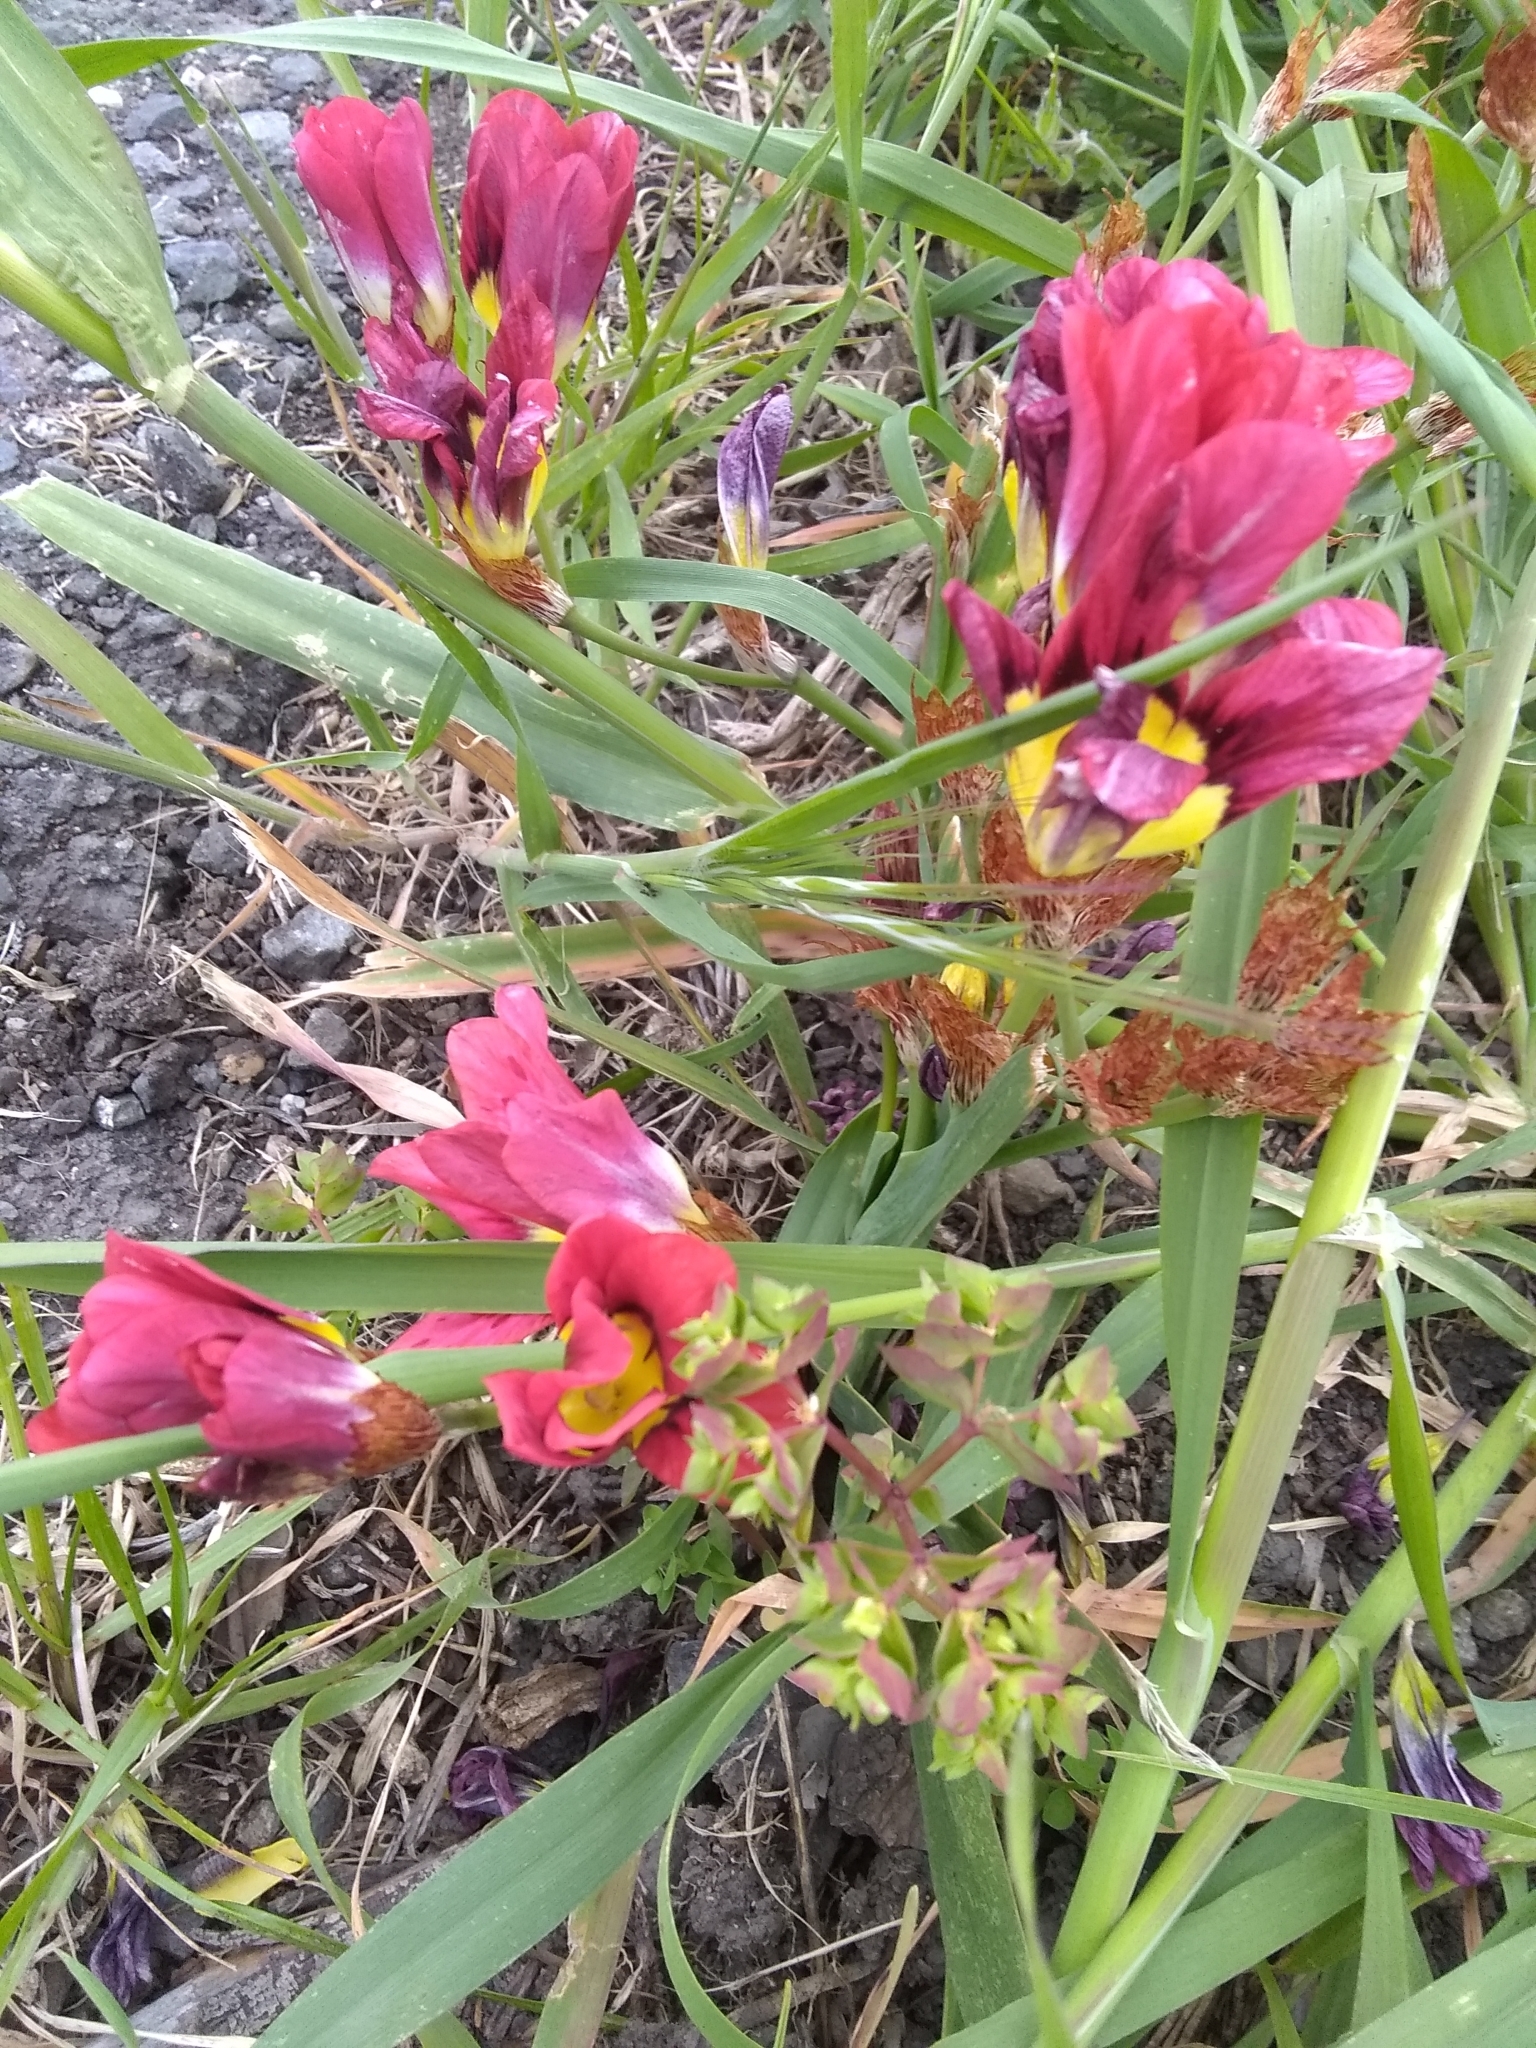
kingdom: Plantae
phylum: Tracheophyta
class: Liliopsida
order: Asparagales
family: Iridaceae
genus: Sparaxis
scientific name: Sparaxis tricolor
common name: Wandflower
